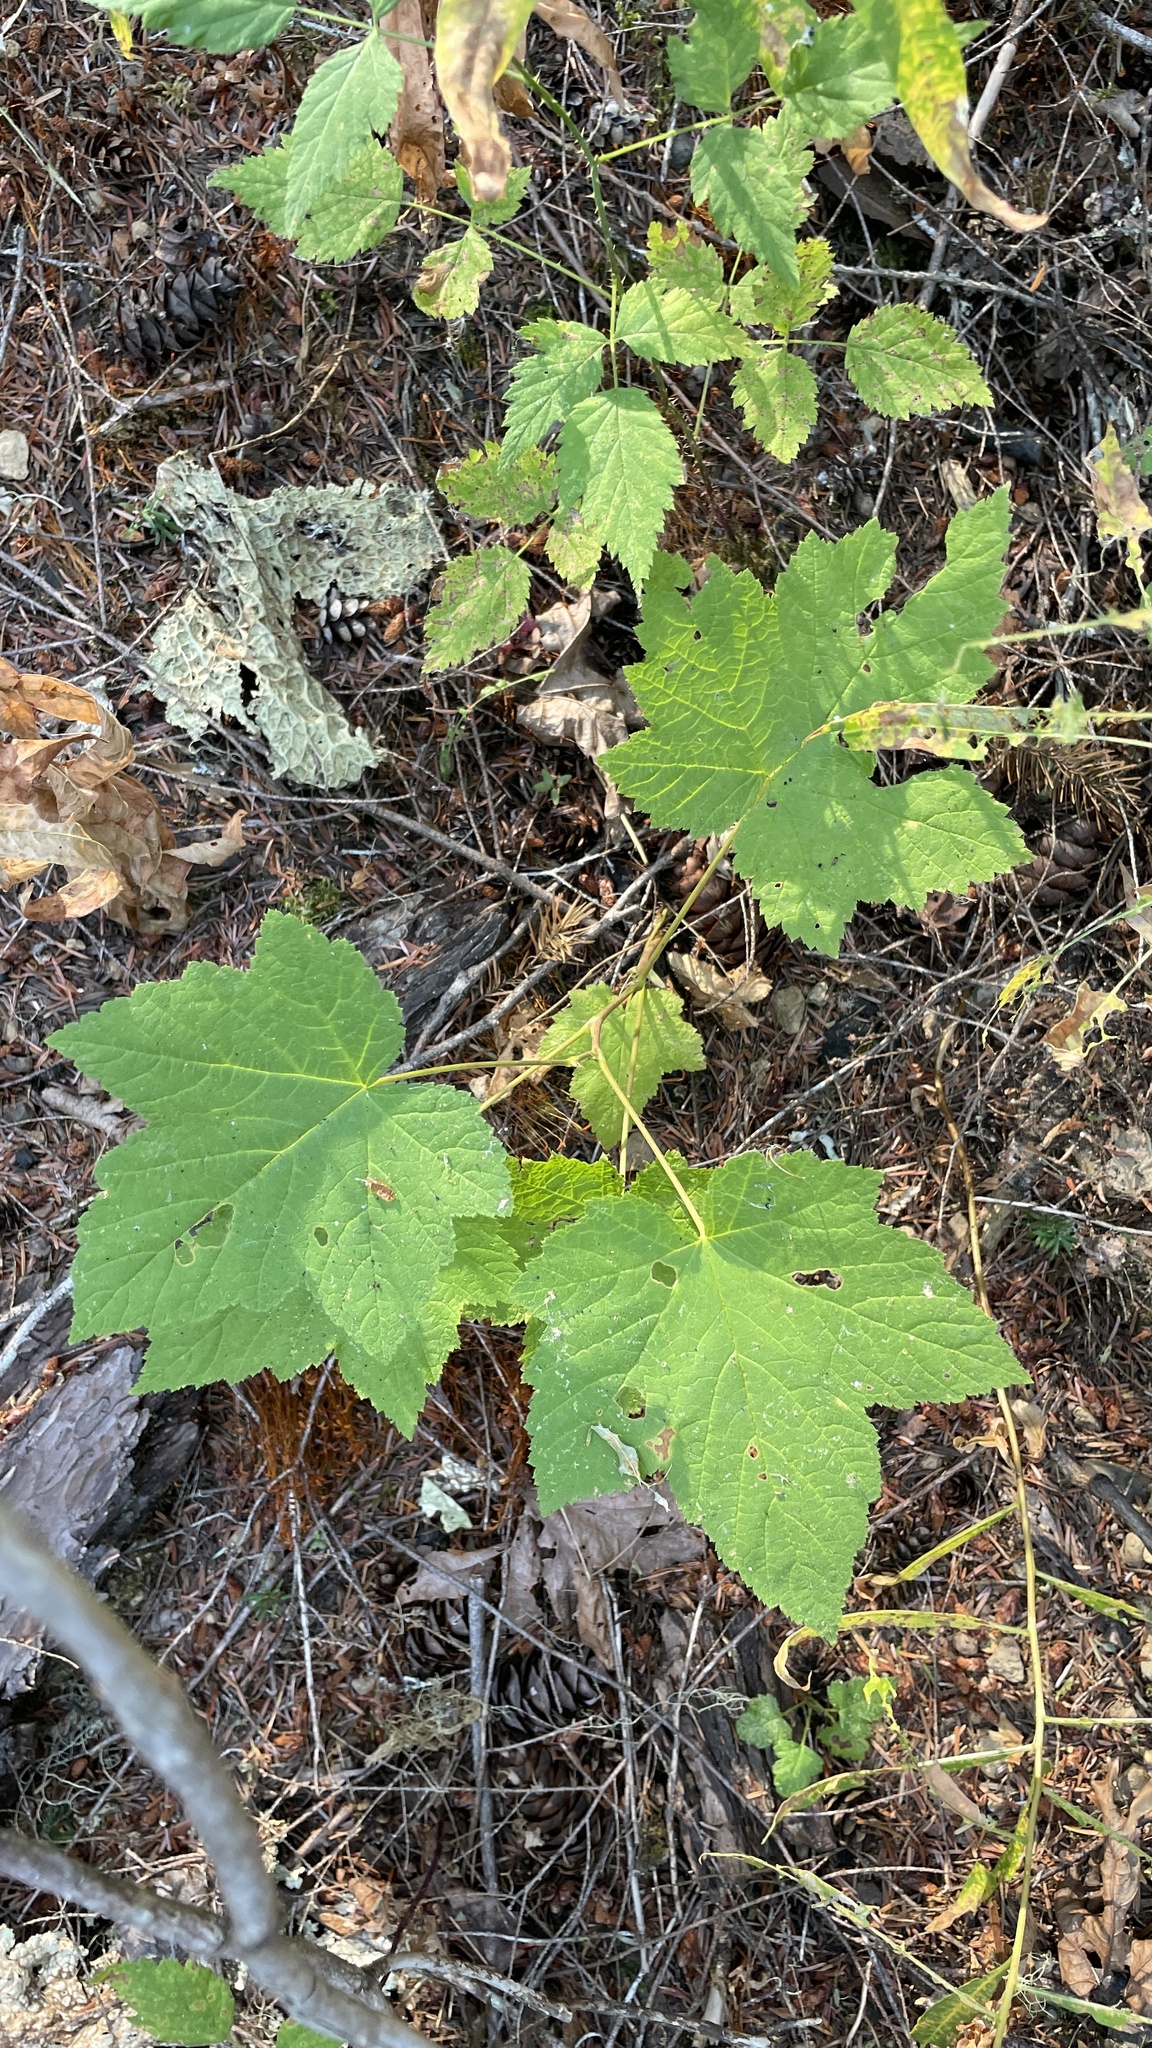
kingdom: Plantae
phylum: Tracheophyta
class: Magnoliopsida
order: Rosales
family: Rosaceae
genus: Rubus
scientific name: Rubus parviflorus
